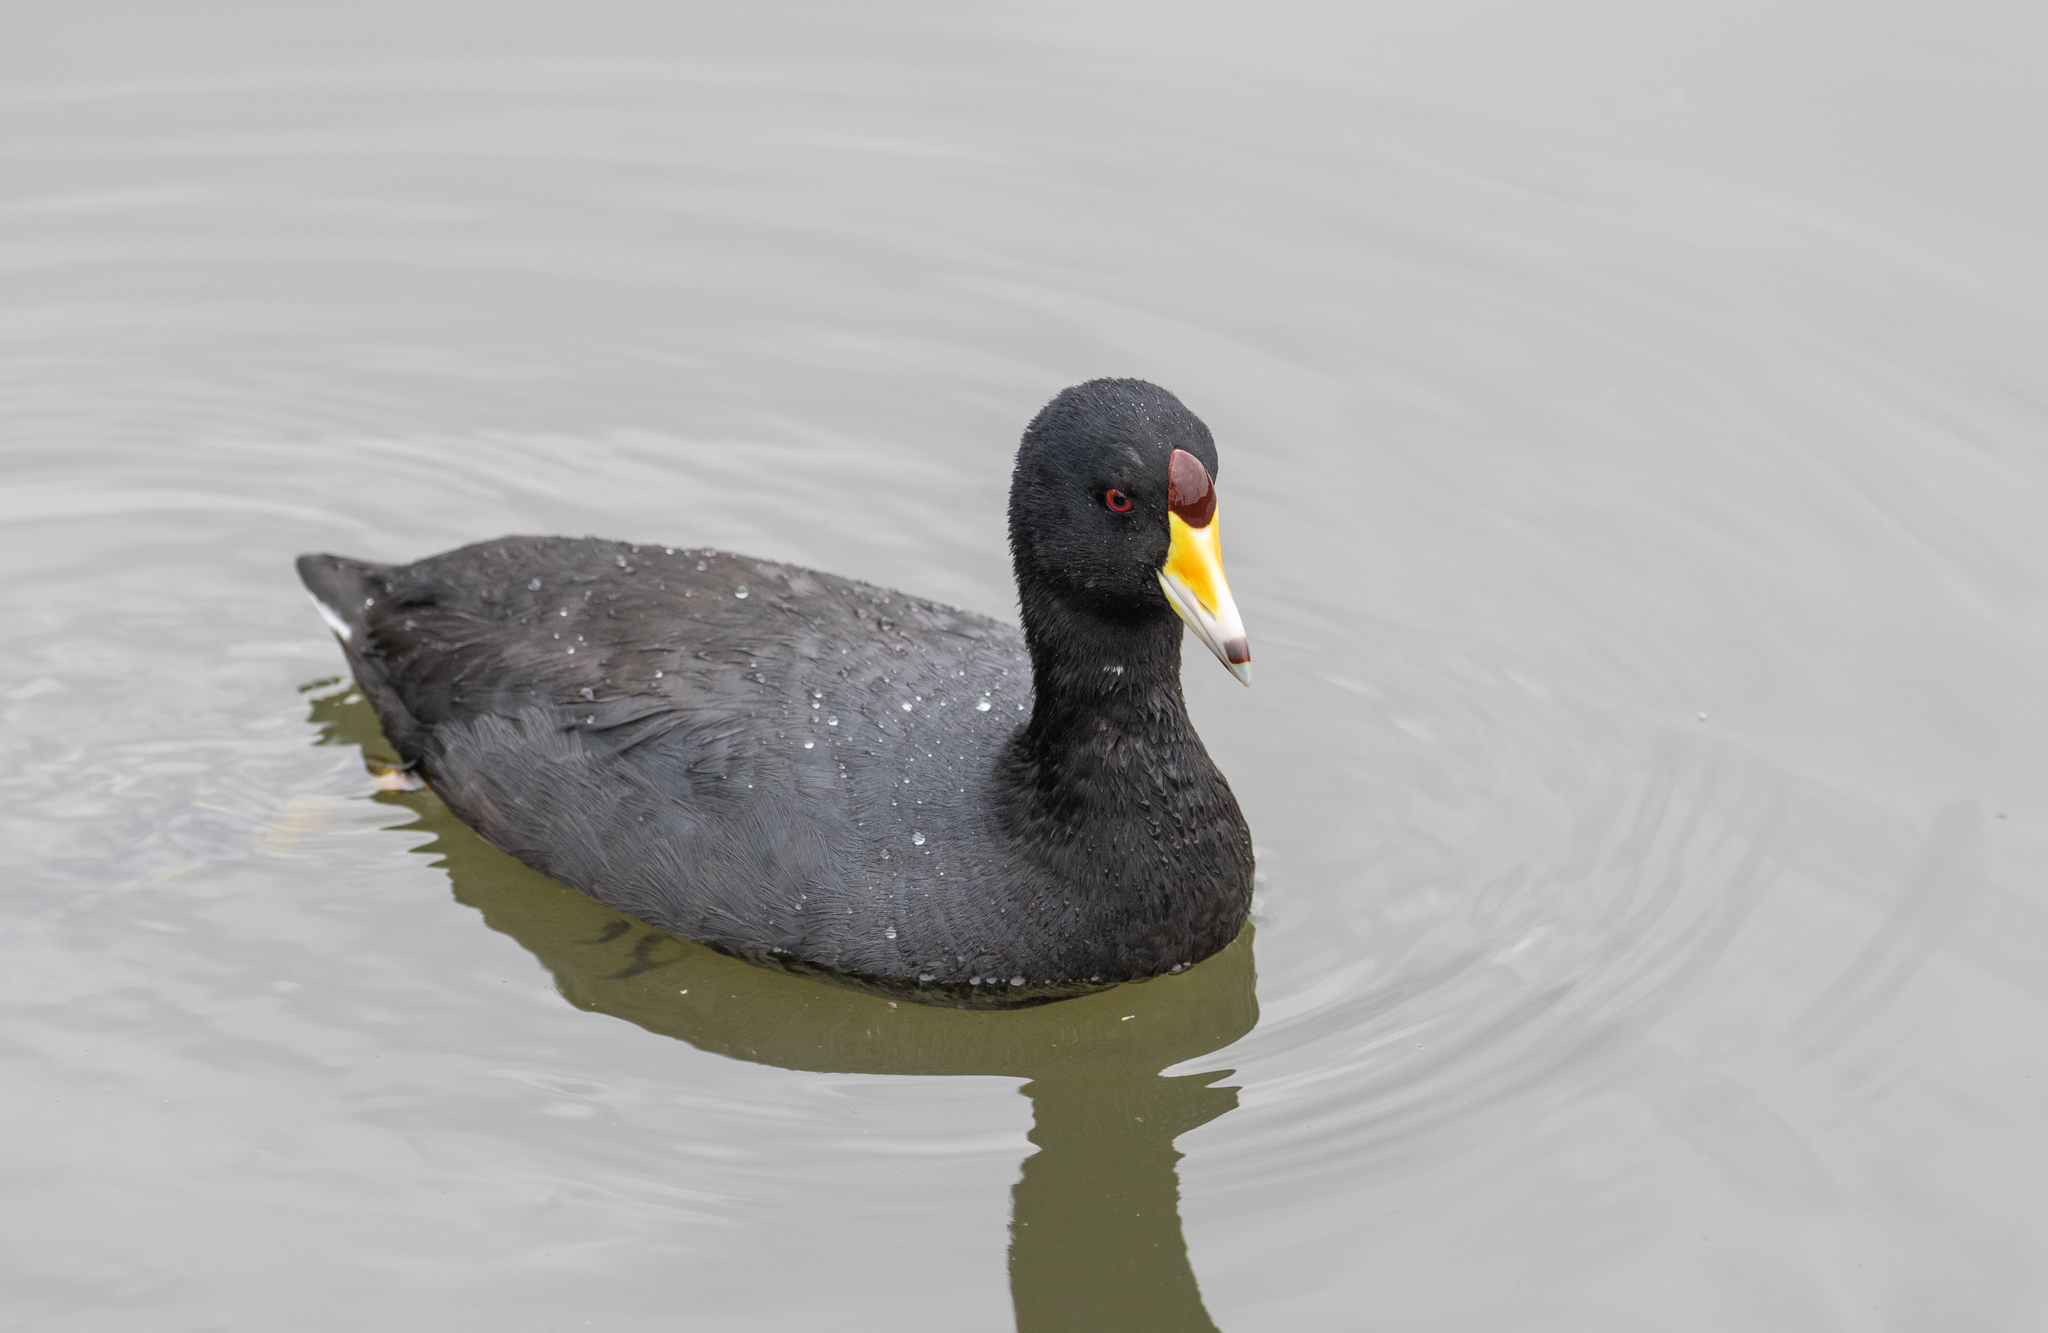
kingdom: Animalia
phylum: Chordata
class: Aves
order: Gruiformes
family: Rallidae
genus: Fulica
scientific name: Fulica americana
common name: American coot
